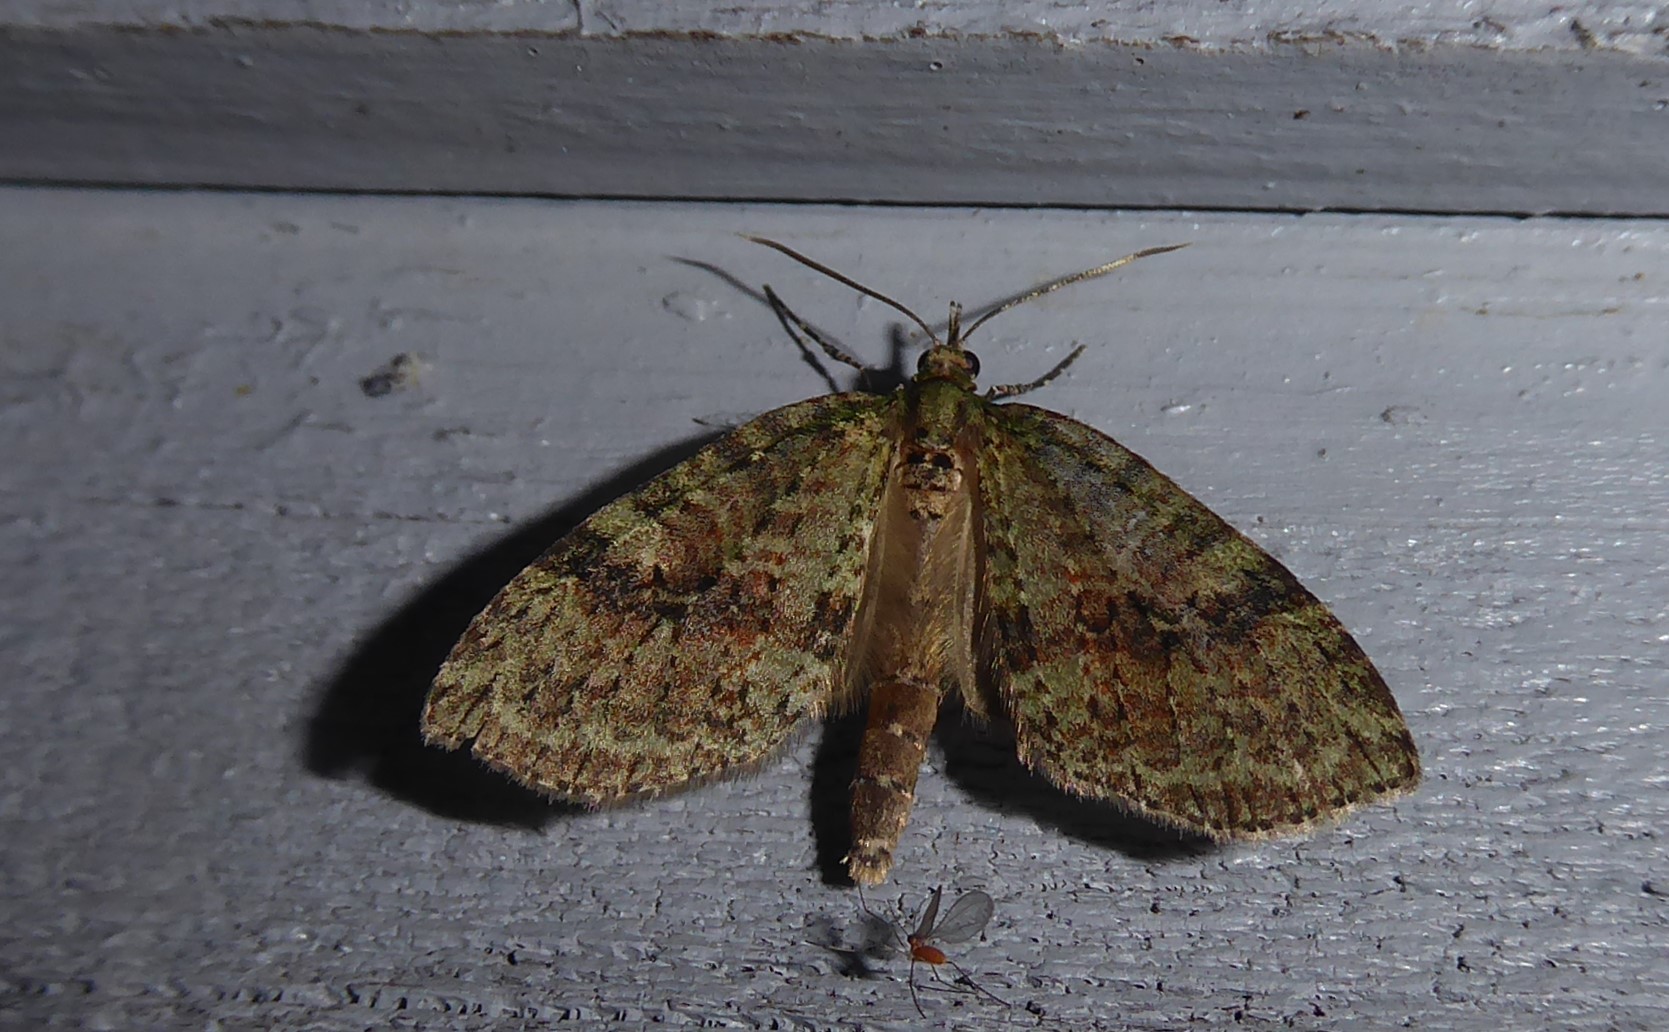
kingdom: Animalia
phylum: Arthropoda
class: Insecta
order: Lepidoptera
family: Geometridae
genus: Tatosoma
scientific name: Tatosoma transitaria
